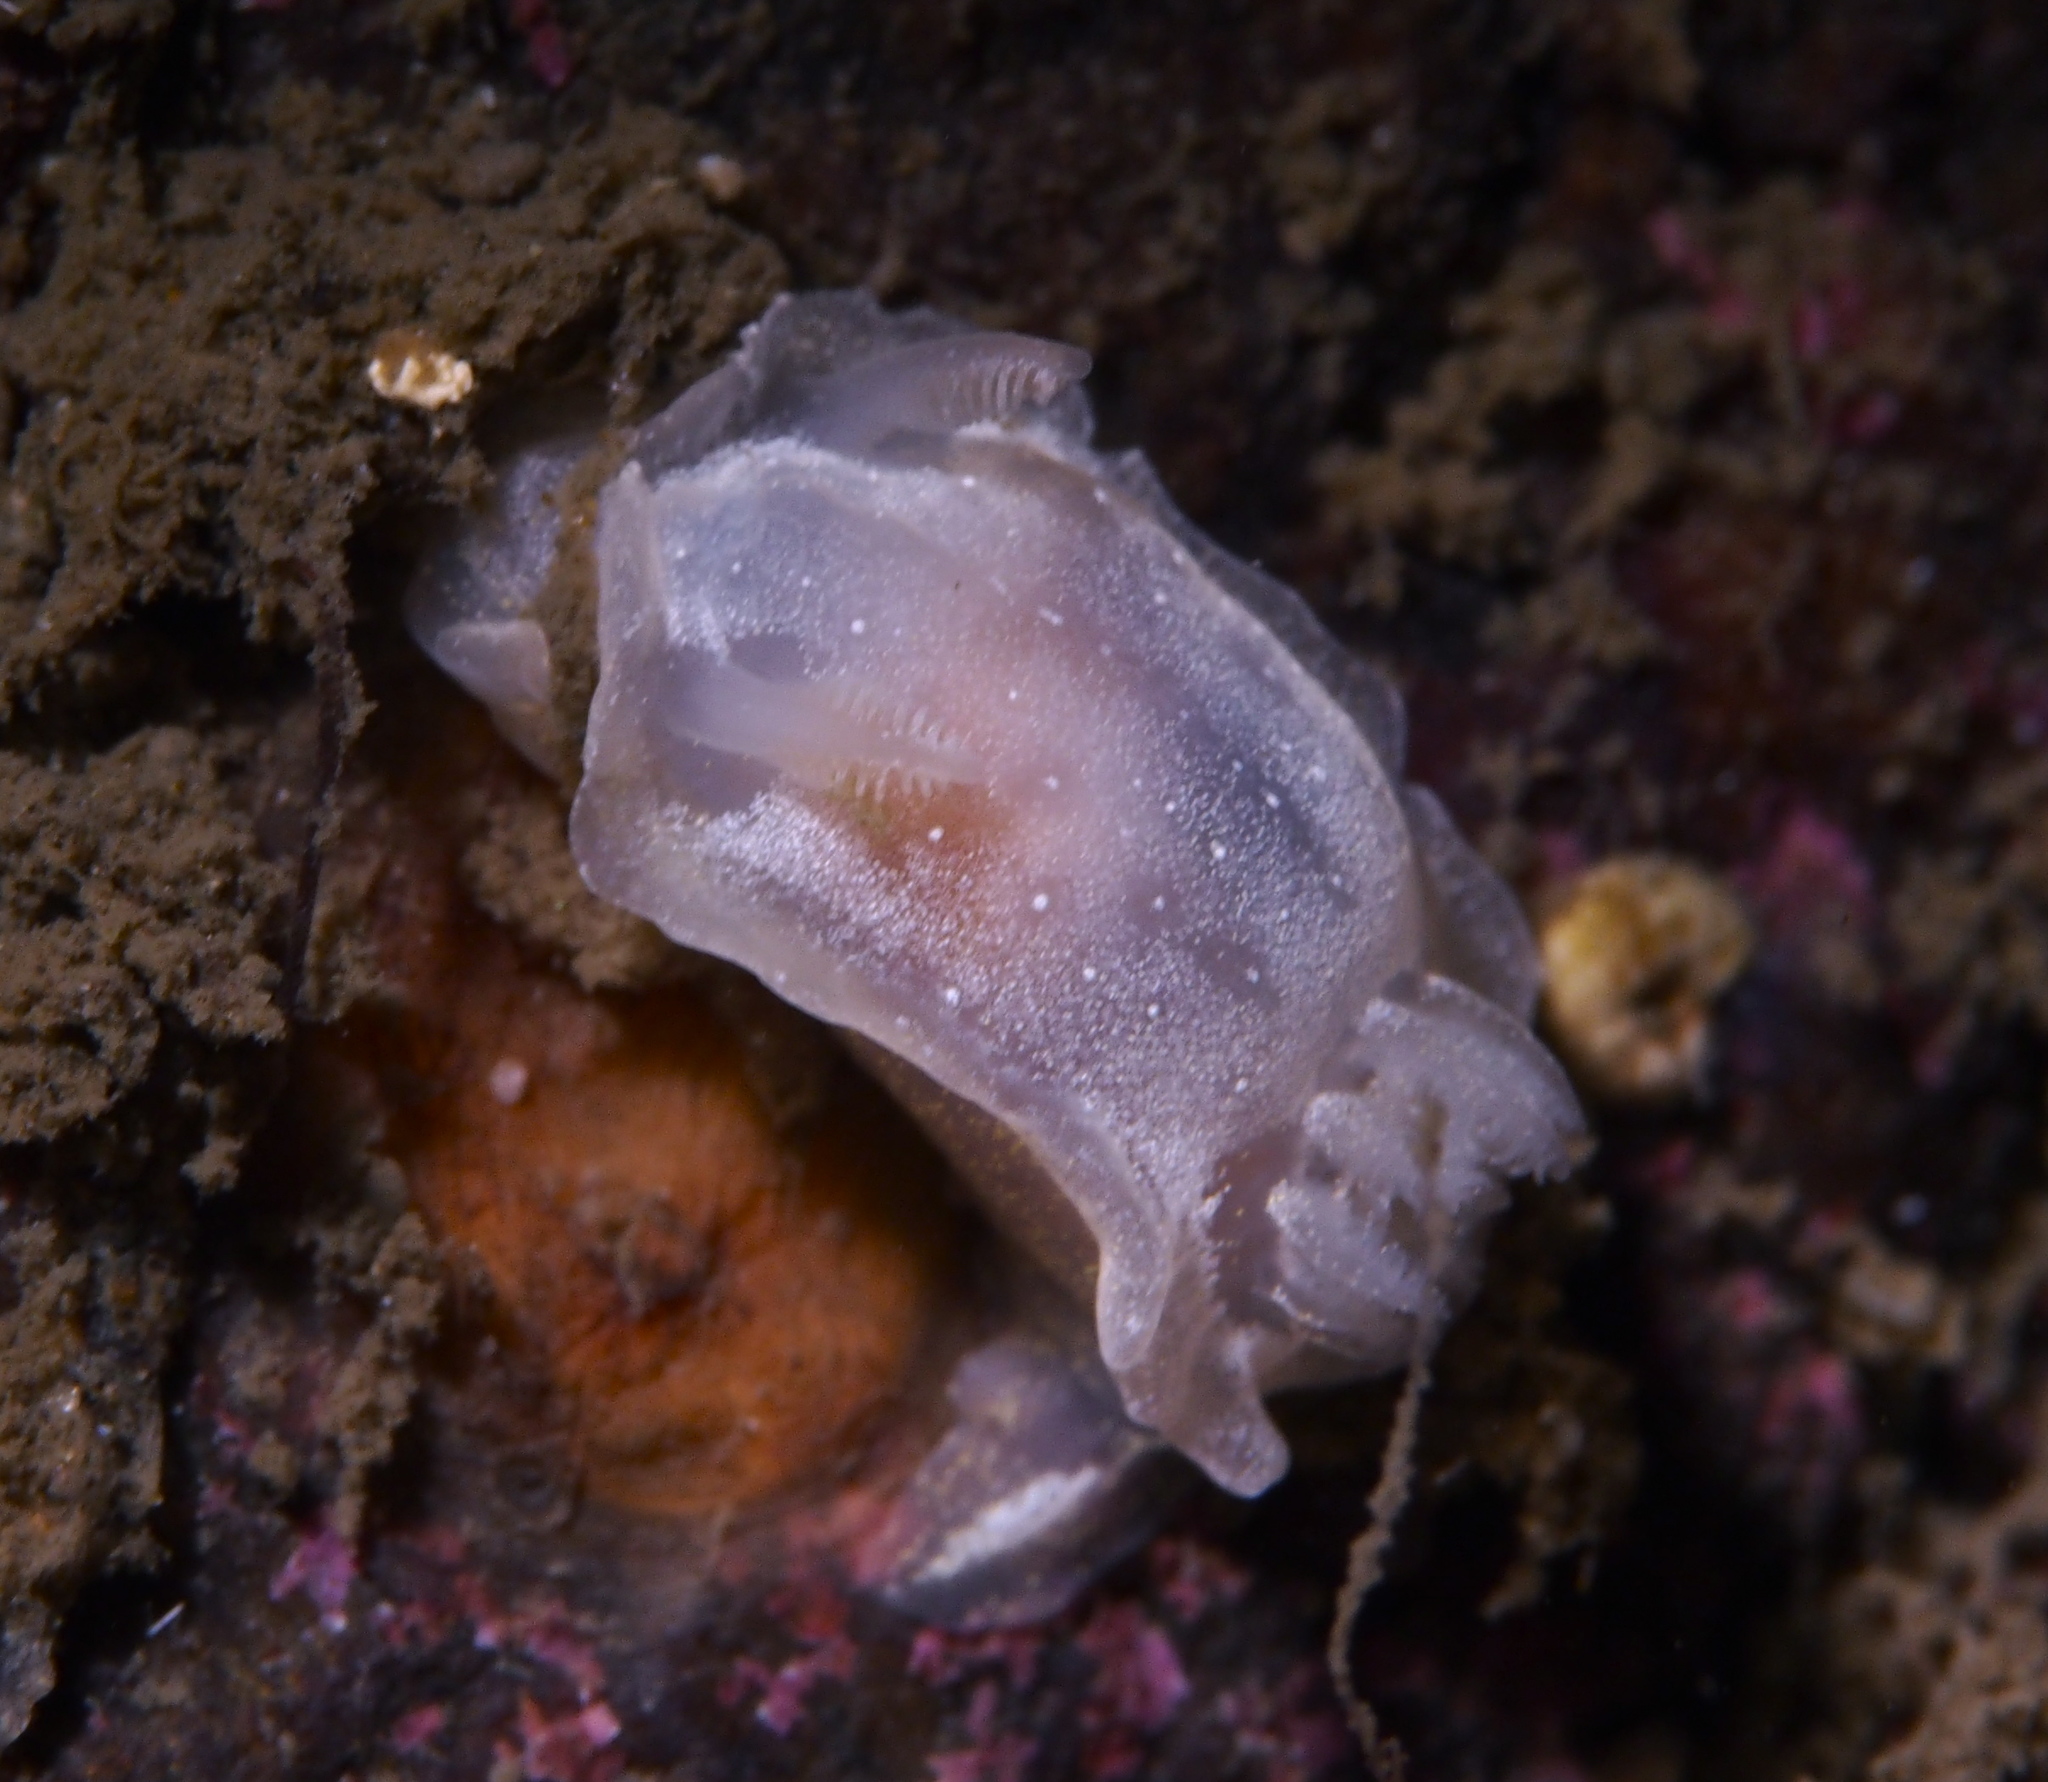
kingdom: Animalia
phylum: Mollusca
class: Gastropoda
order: Nudibranchia
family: Goniodorididae
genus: Okenia
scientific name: Okenia
